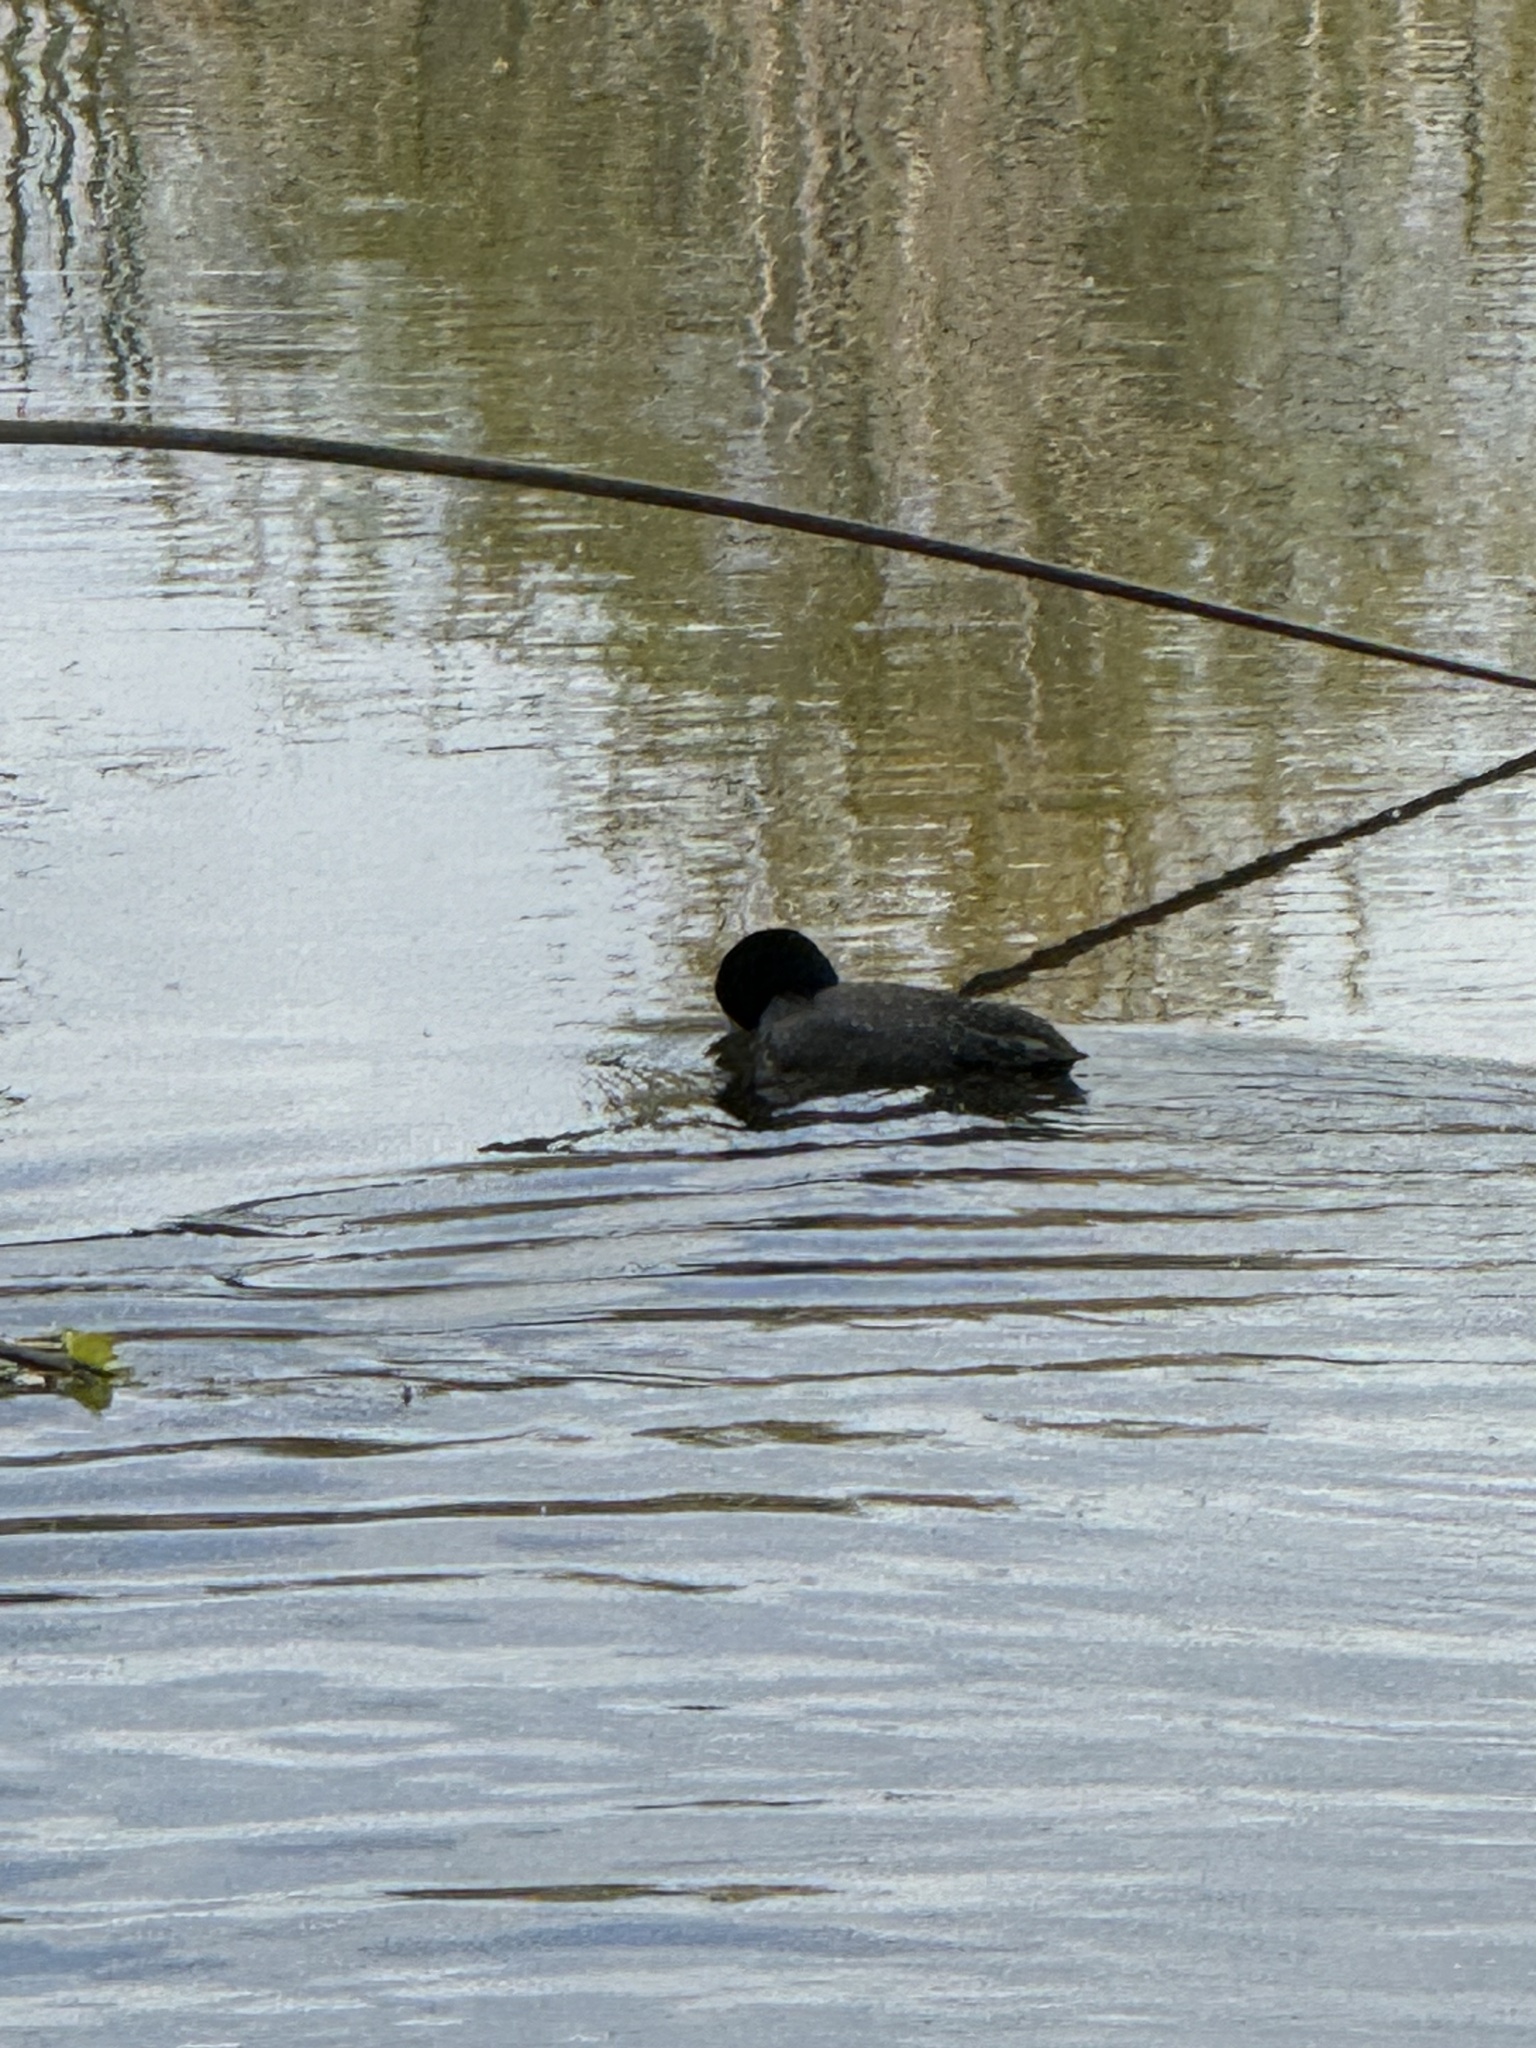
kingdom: Animalia
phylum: Chordata
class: Aves
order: Gruiformes
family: Rallidae
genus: Fulica
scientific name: Fulica americana
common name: American coot
